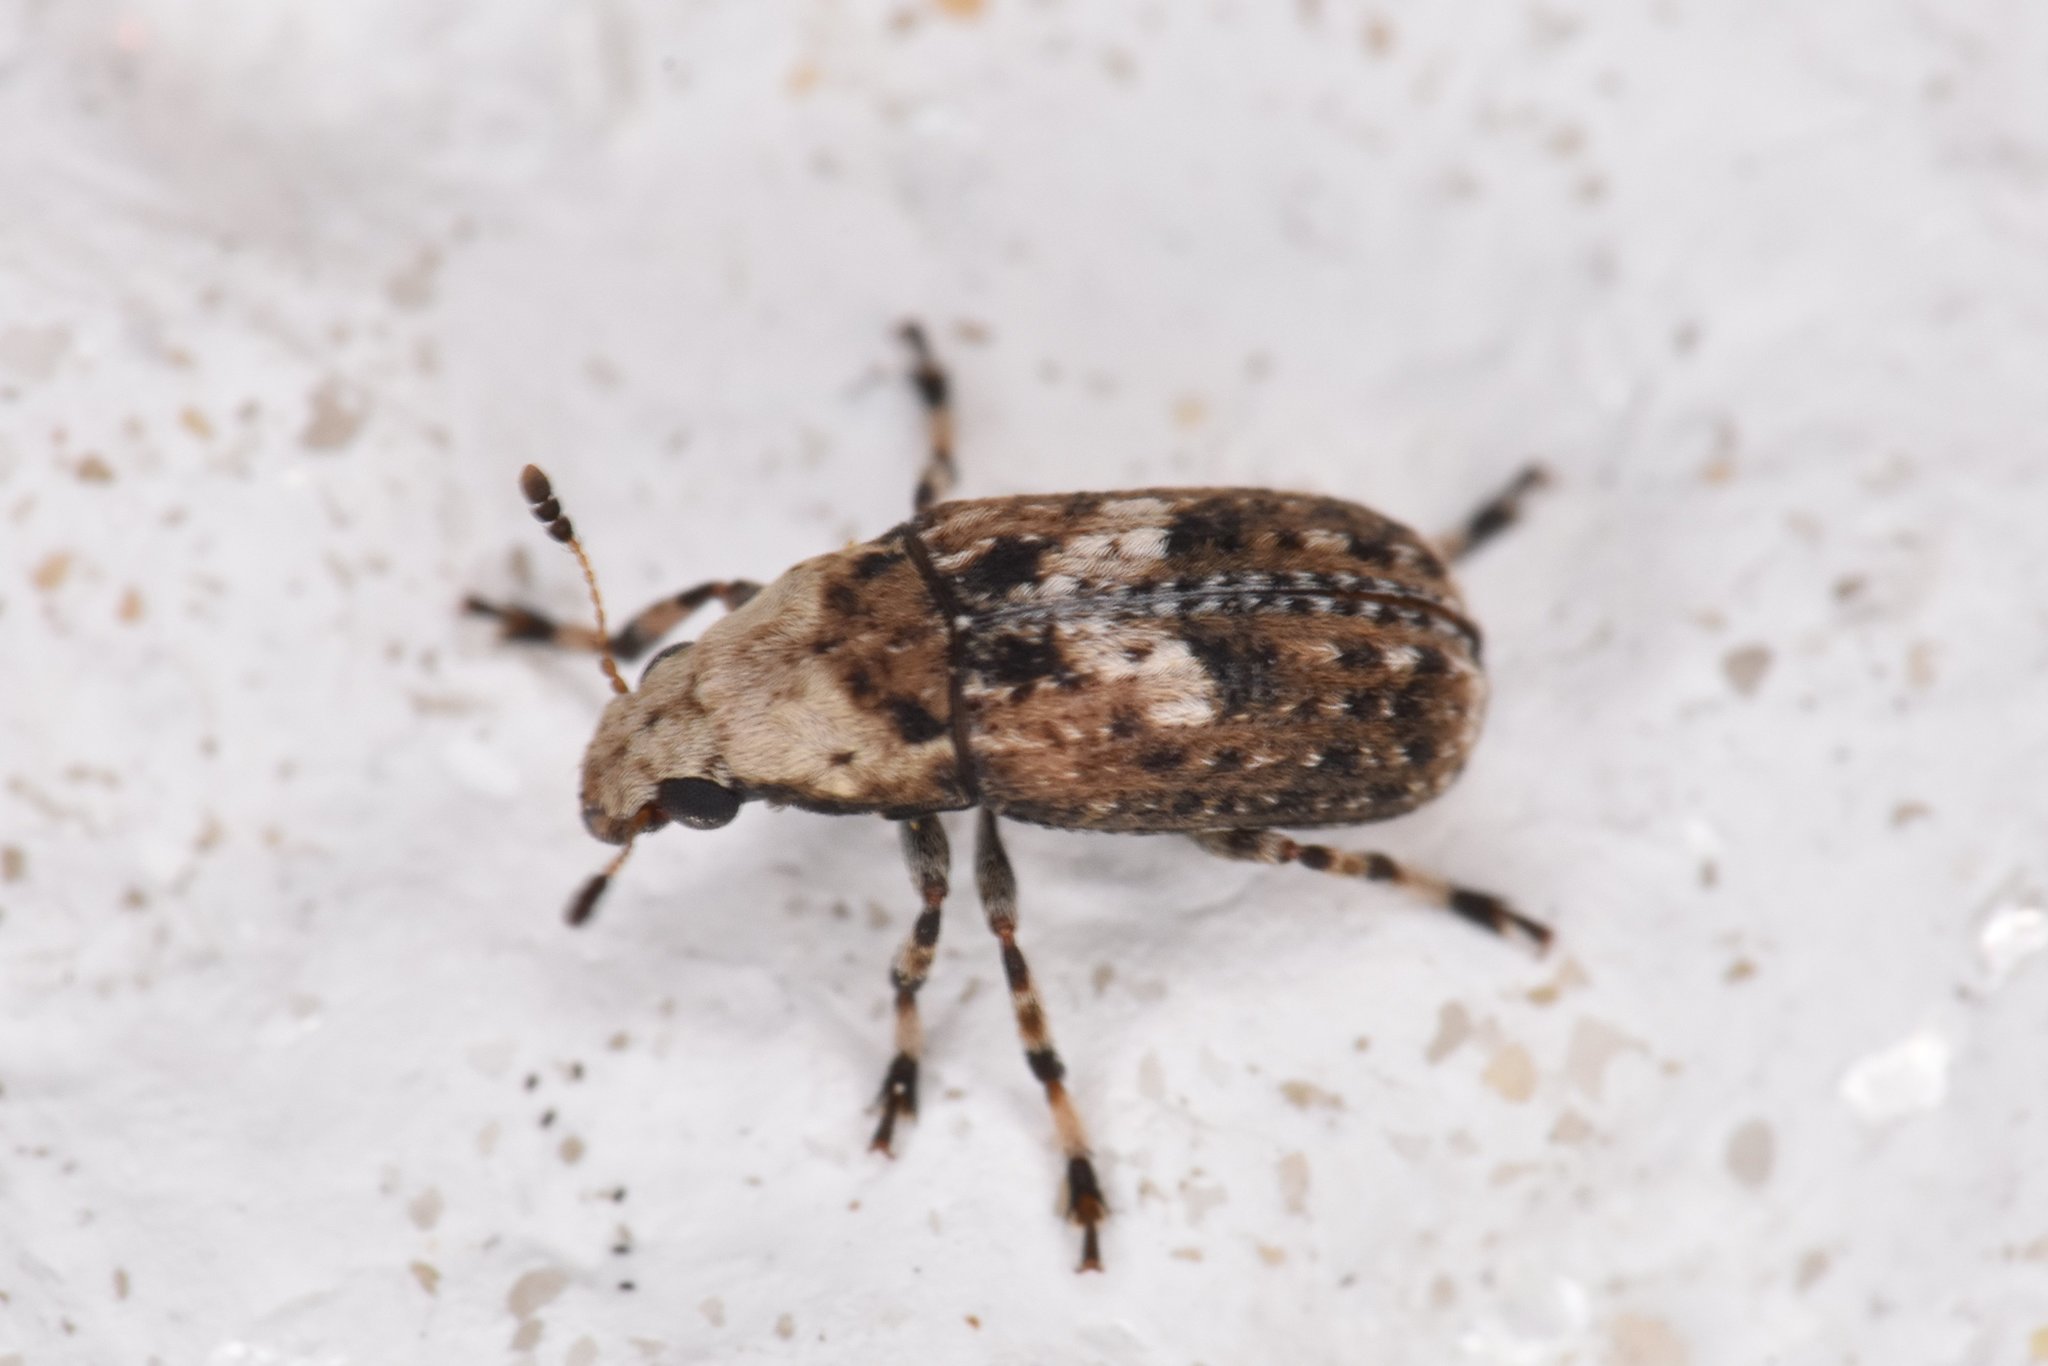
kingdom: Animalia
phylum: Arthropoda
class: Insecta
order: Coleoptera
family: Anthribidae
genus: Euparius
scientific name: Euparius marmoreus
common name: Marbled fungus weevil
